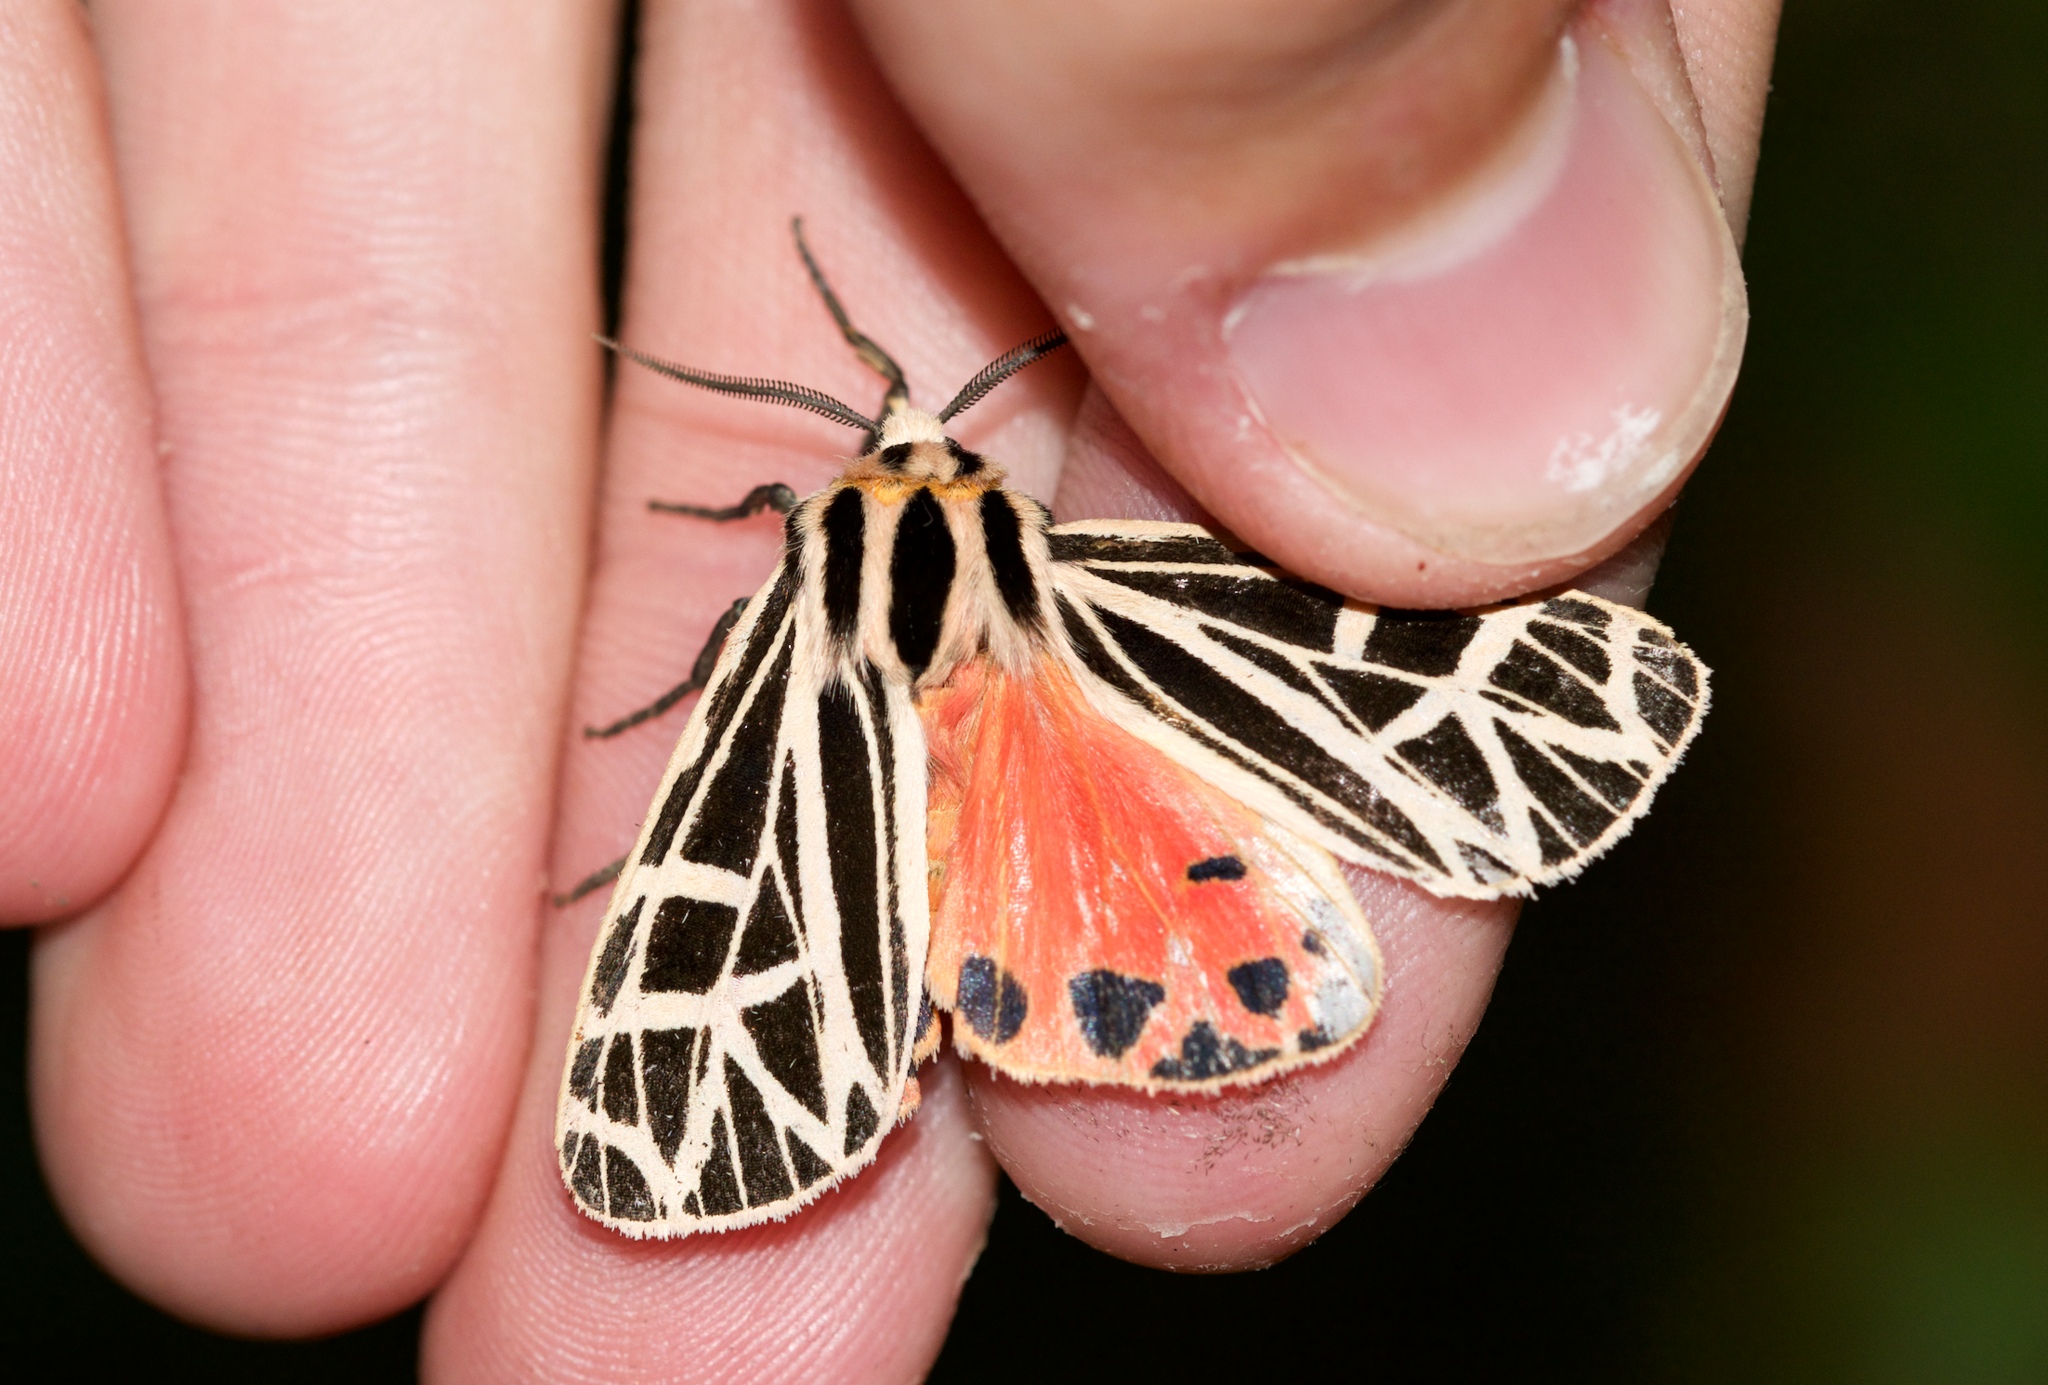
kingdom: Animalia
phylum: Arthropoda
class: Insecta
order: Lepidoptera
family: Erebidae
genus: Grammia
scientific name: Grammia parthenice
